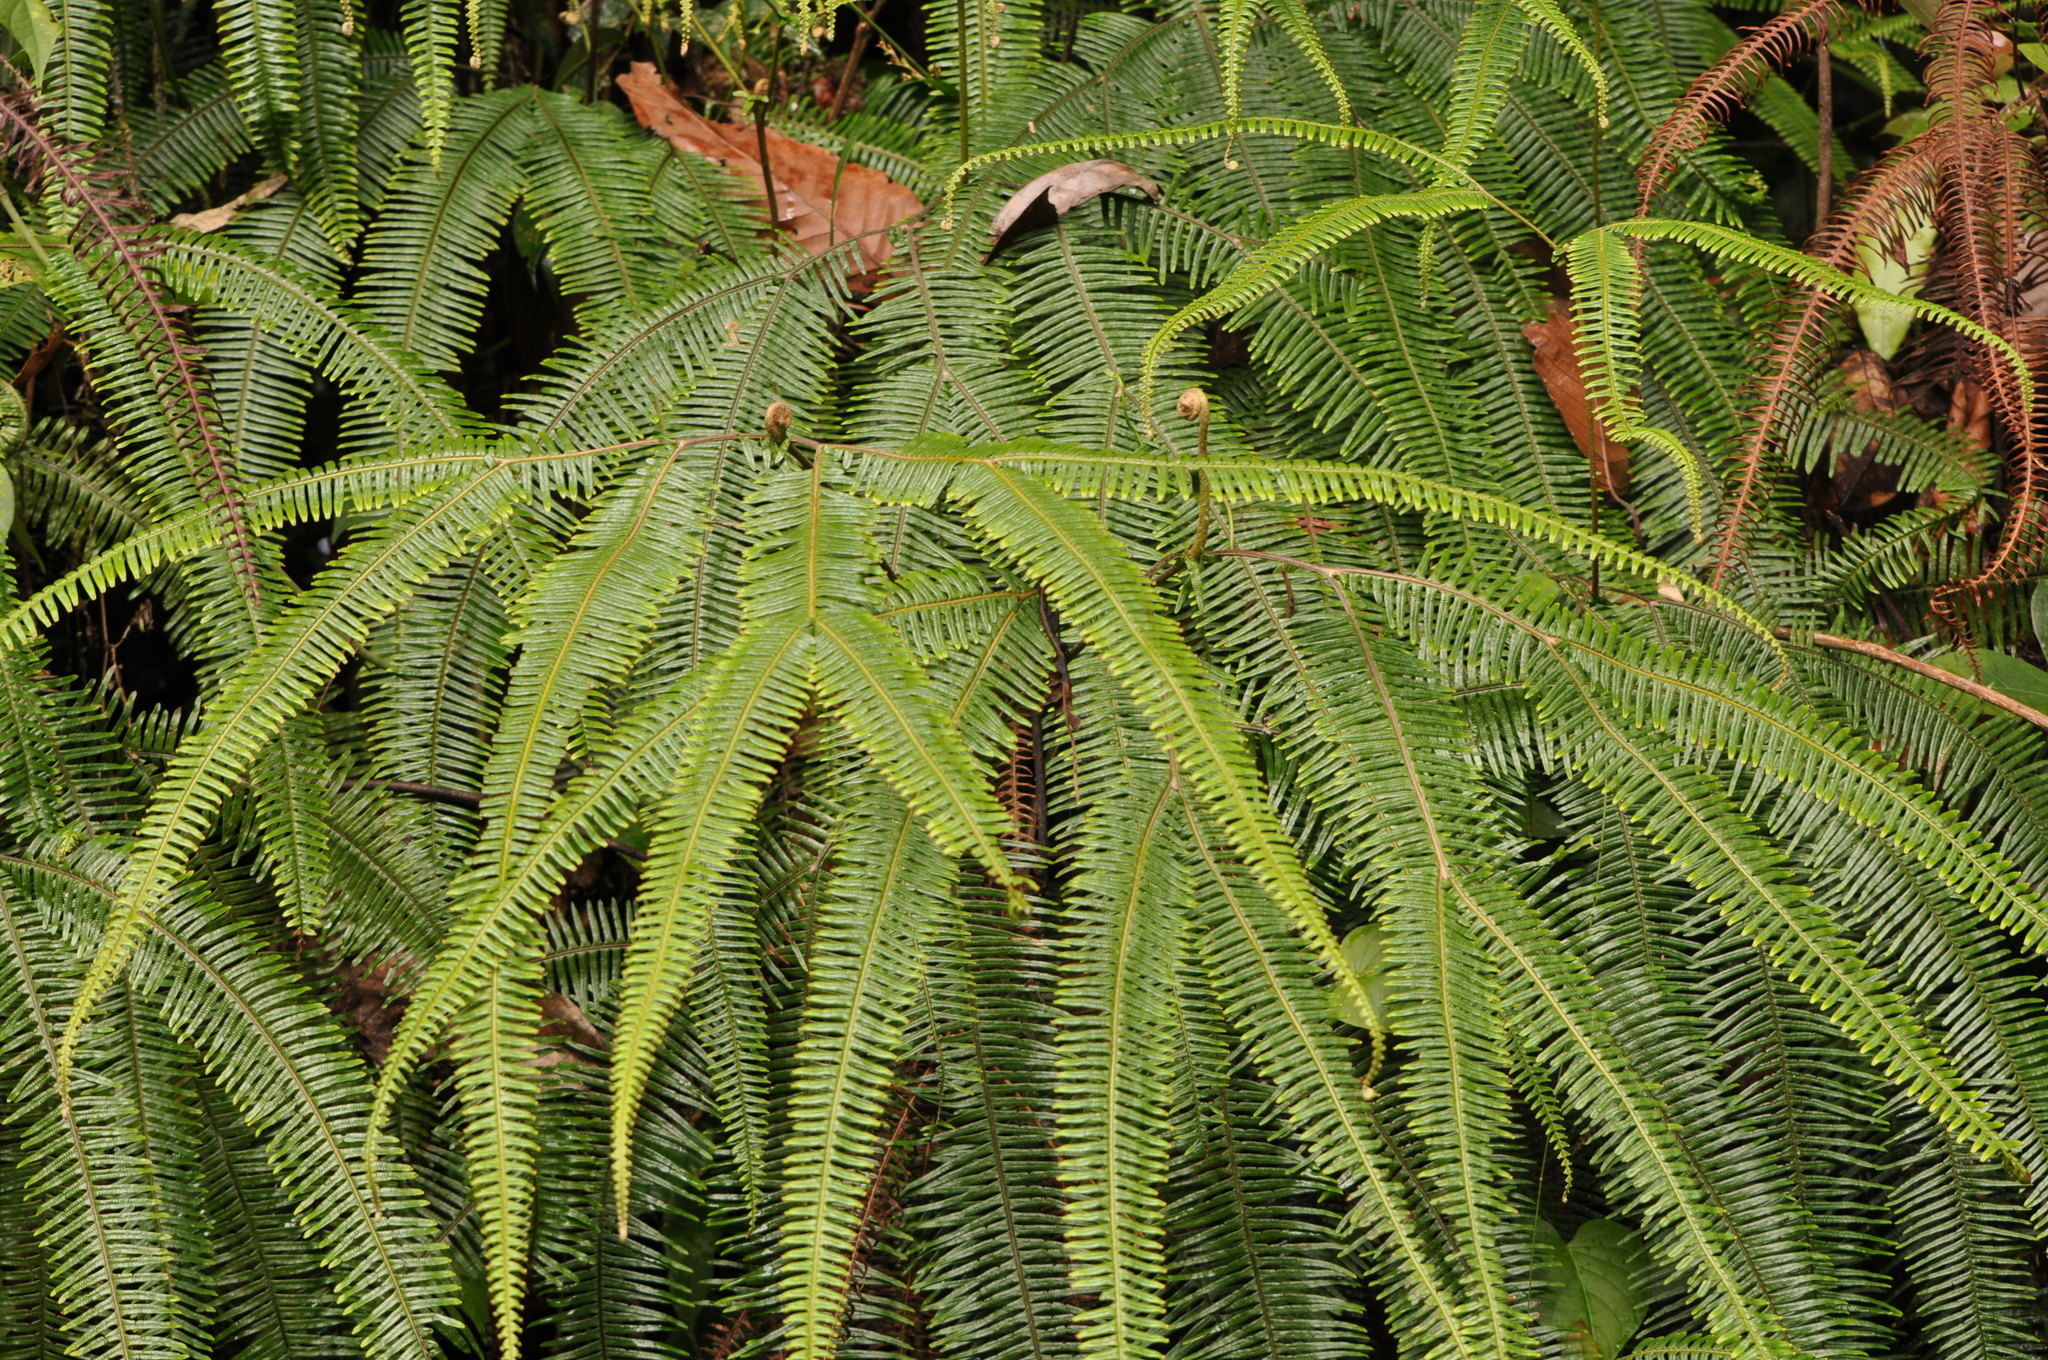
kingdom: Plantae
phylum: Tracheophyta
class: Polypodiopsida
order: Gleicheniales
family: Gleicheniaceae
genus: Sticherus
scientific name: Sticherus bifidus
